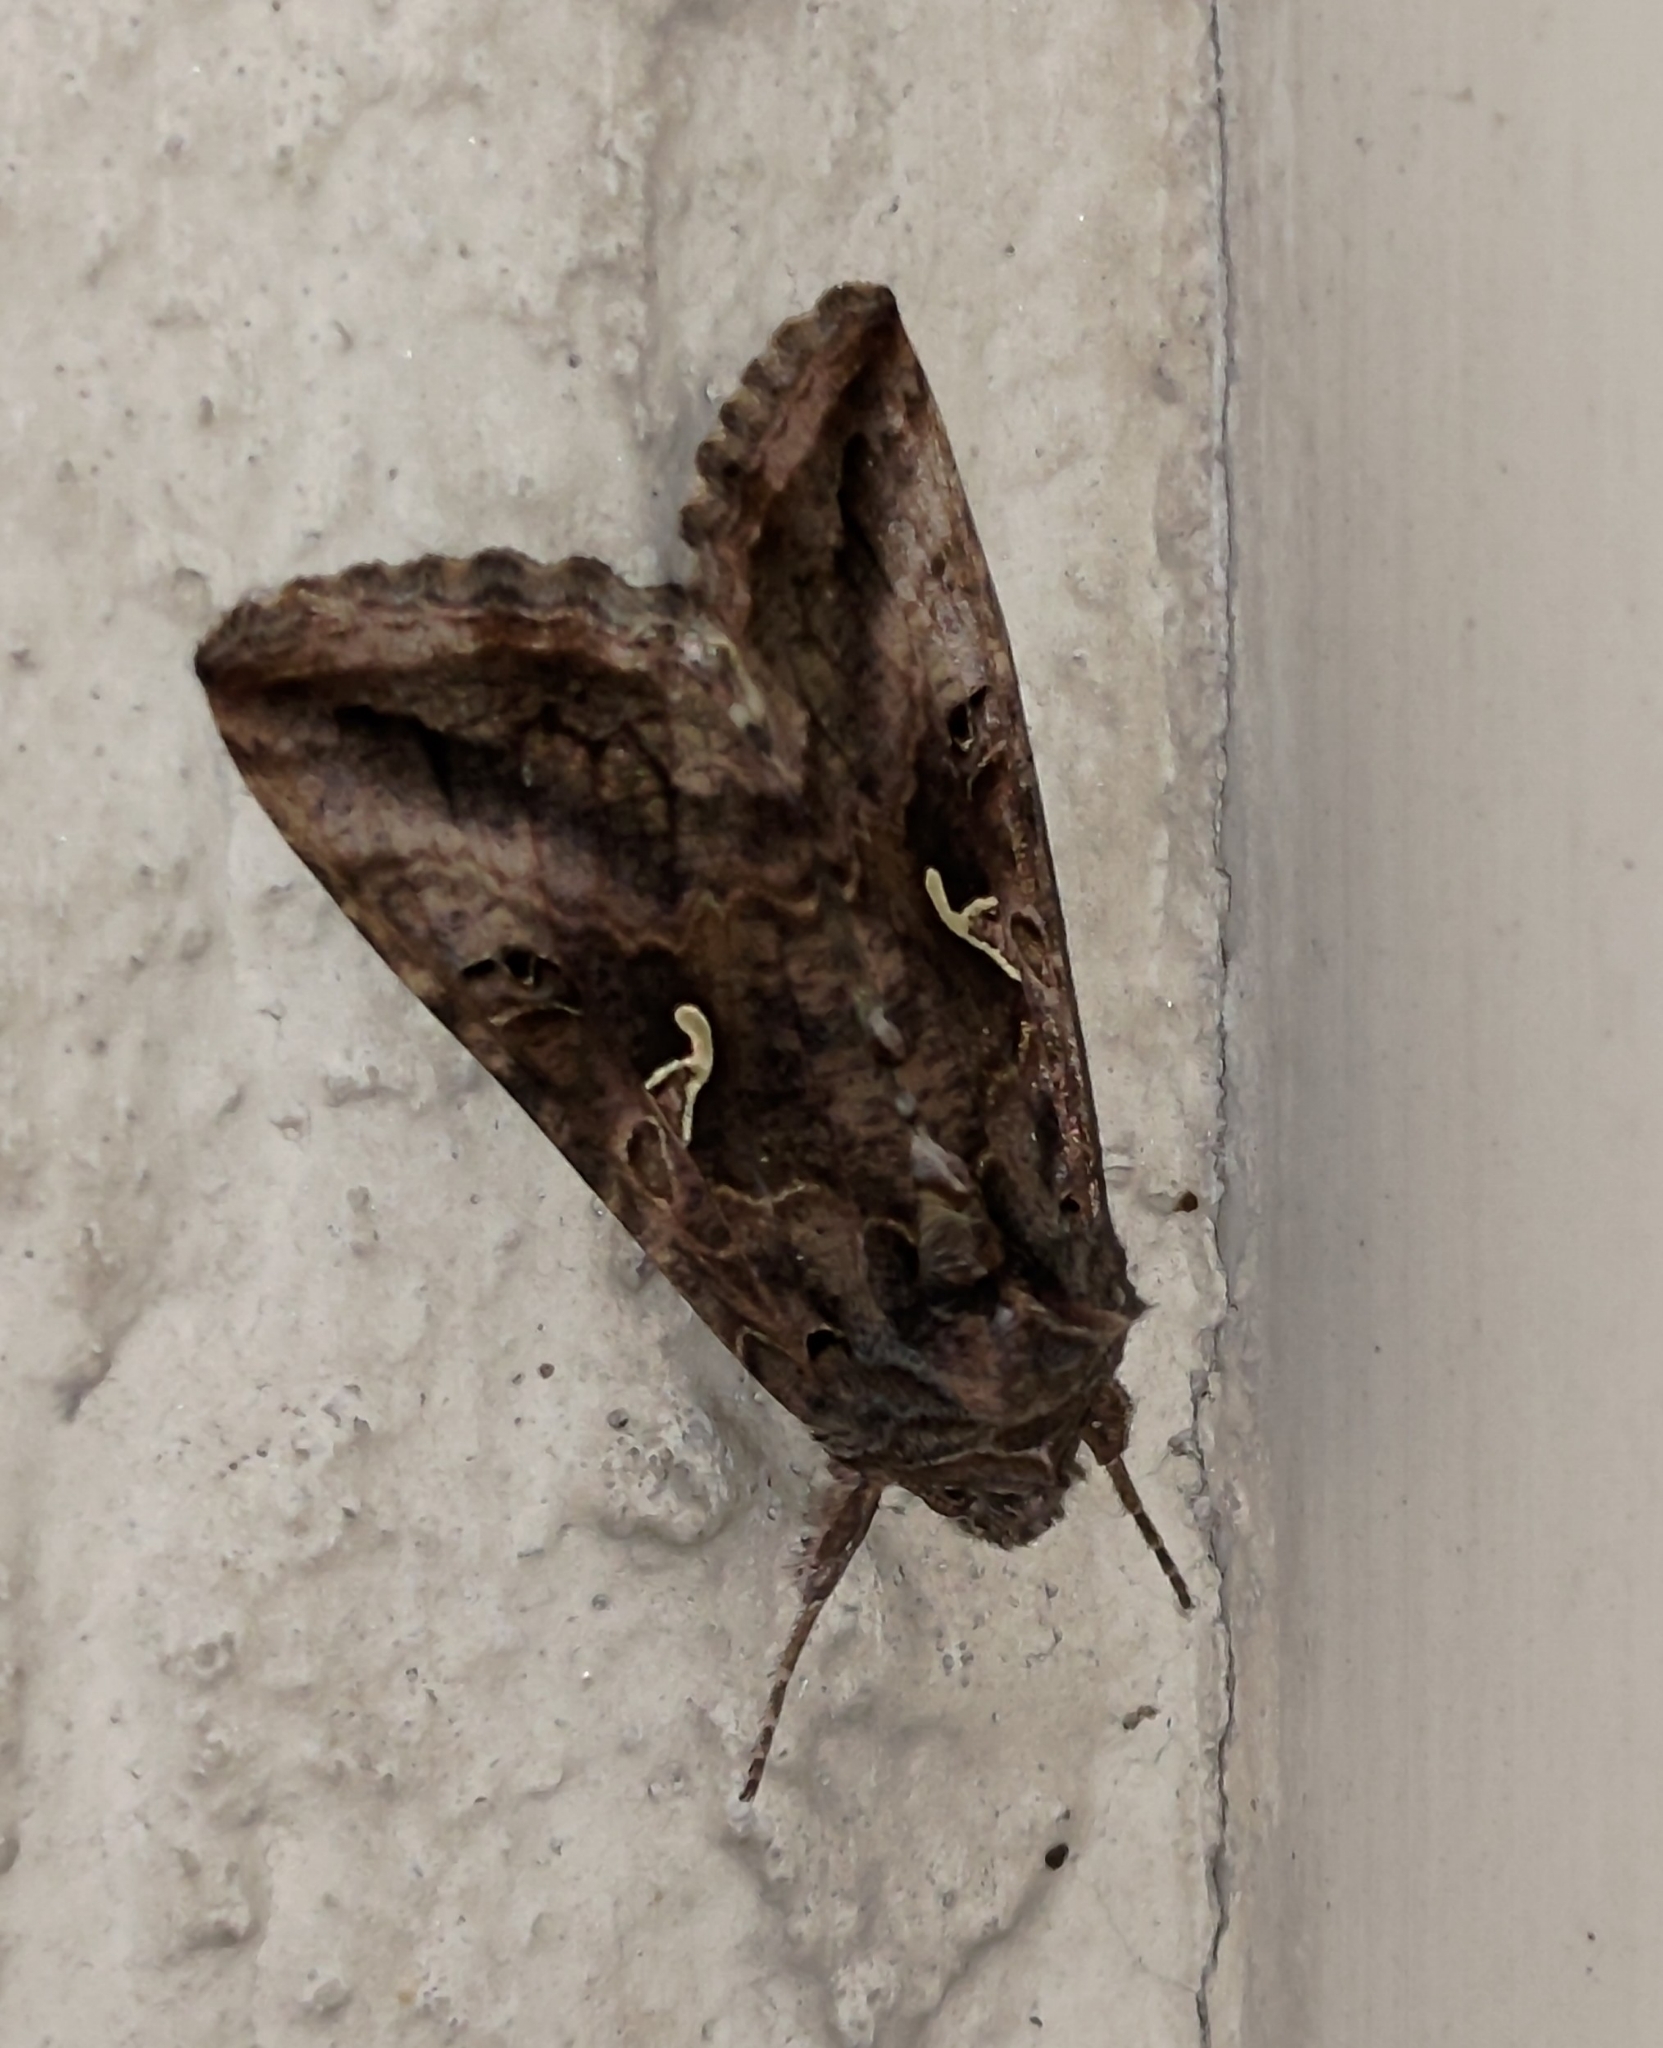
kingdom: Animalia
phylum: Arthropoda
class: Insecta
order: Lepidoptera
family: Noctuidae
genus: Autographa
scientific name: Autographa gamma
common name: Silver y
